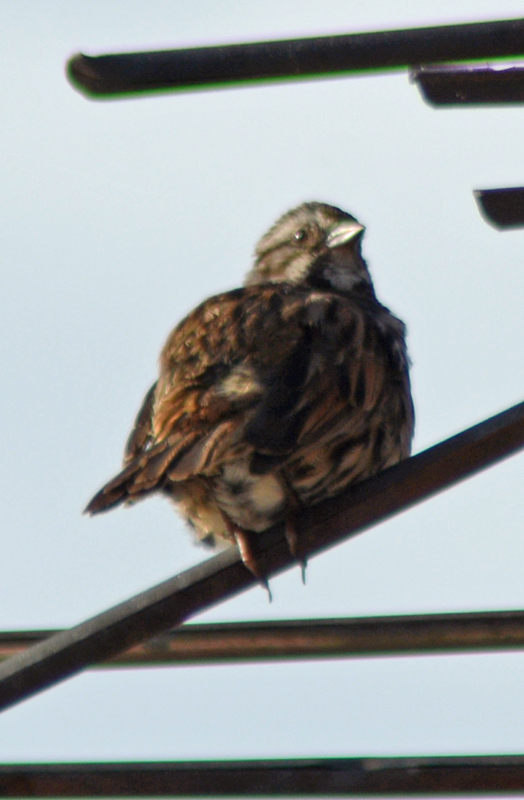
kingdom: Animalia
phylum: Chordata
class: Aves
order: Passeriformes
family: Passerellidae
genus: Melospiza
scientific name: Melospiza melodia
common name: Song sparrow
